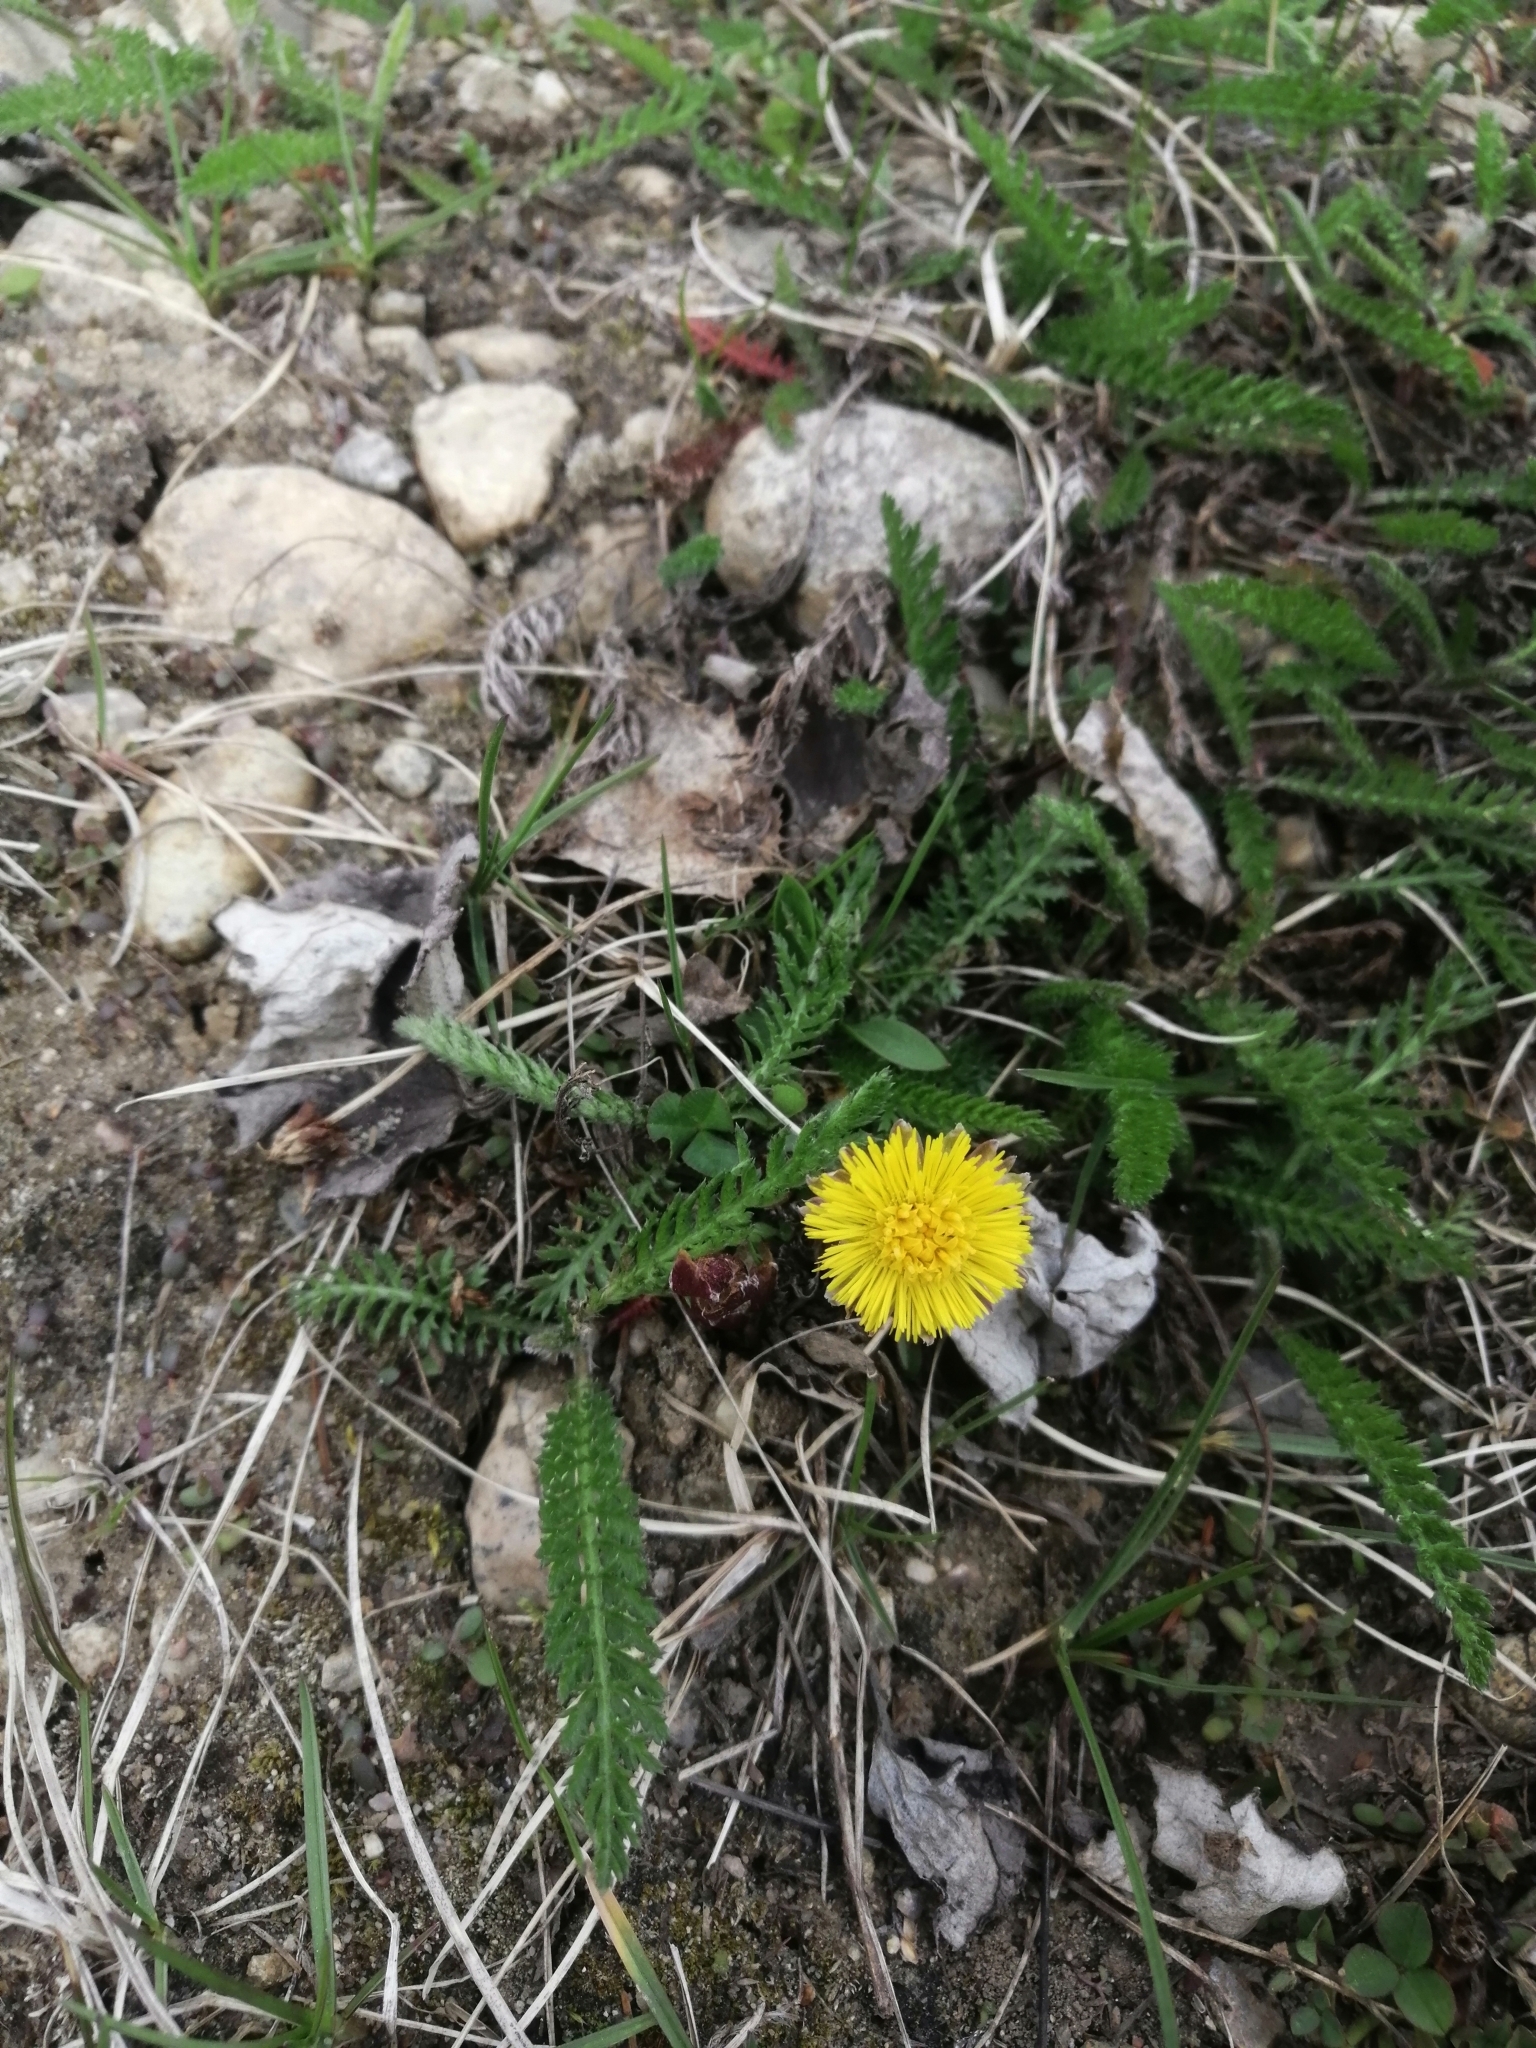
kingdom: Plantae
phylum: Tracheophyta
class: Magnoliopsida
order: Asterales
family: Asteraceae
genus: Tussilago
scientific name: Tussilago farfara
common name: Coltsfoot
